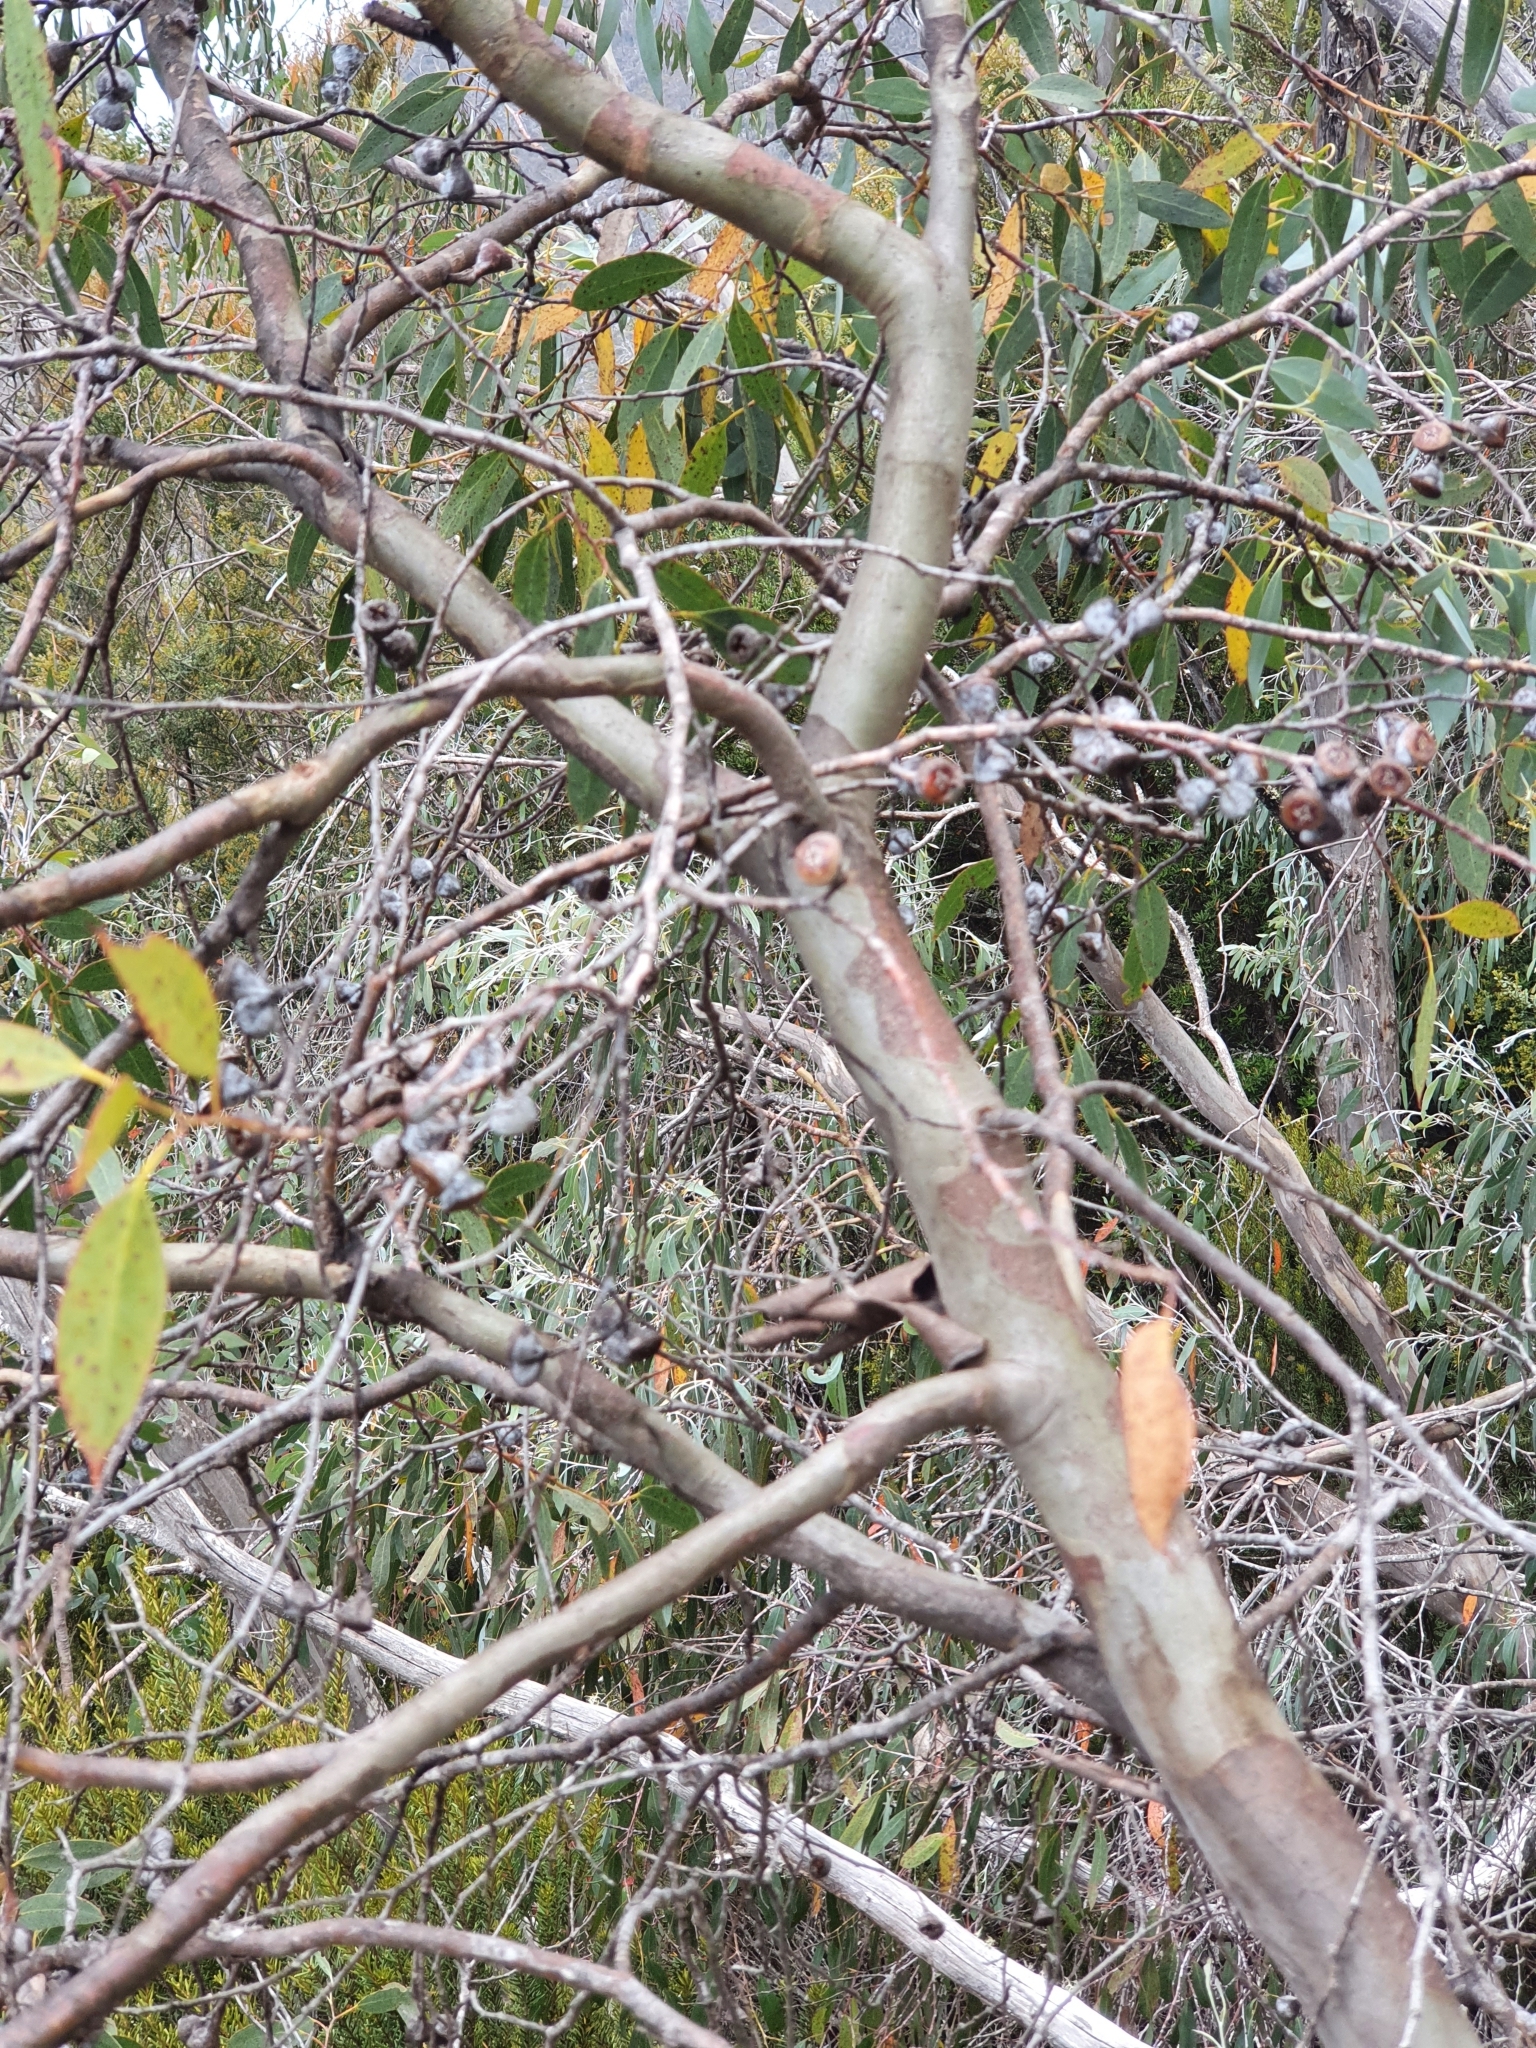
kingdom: Plantae
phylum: Tracheophyta
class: Magnoliopsida
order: Myrtales
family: Myrtaceae
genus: Eucalyptus
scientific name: Eucalyptus coccifera
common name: Tasmanian snow-gum
